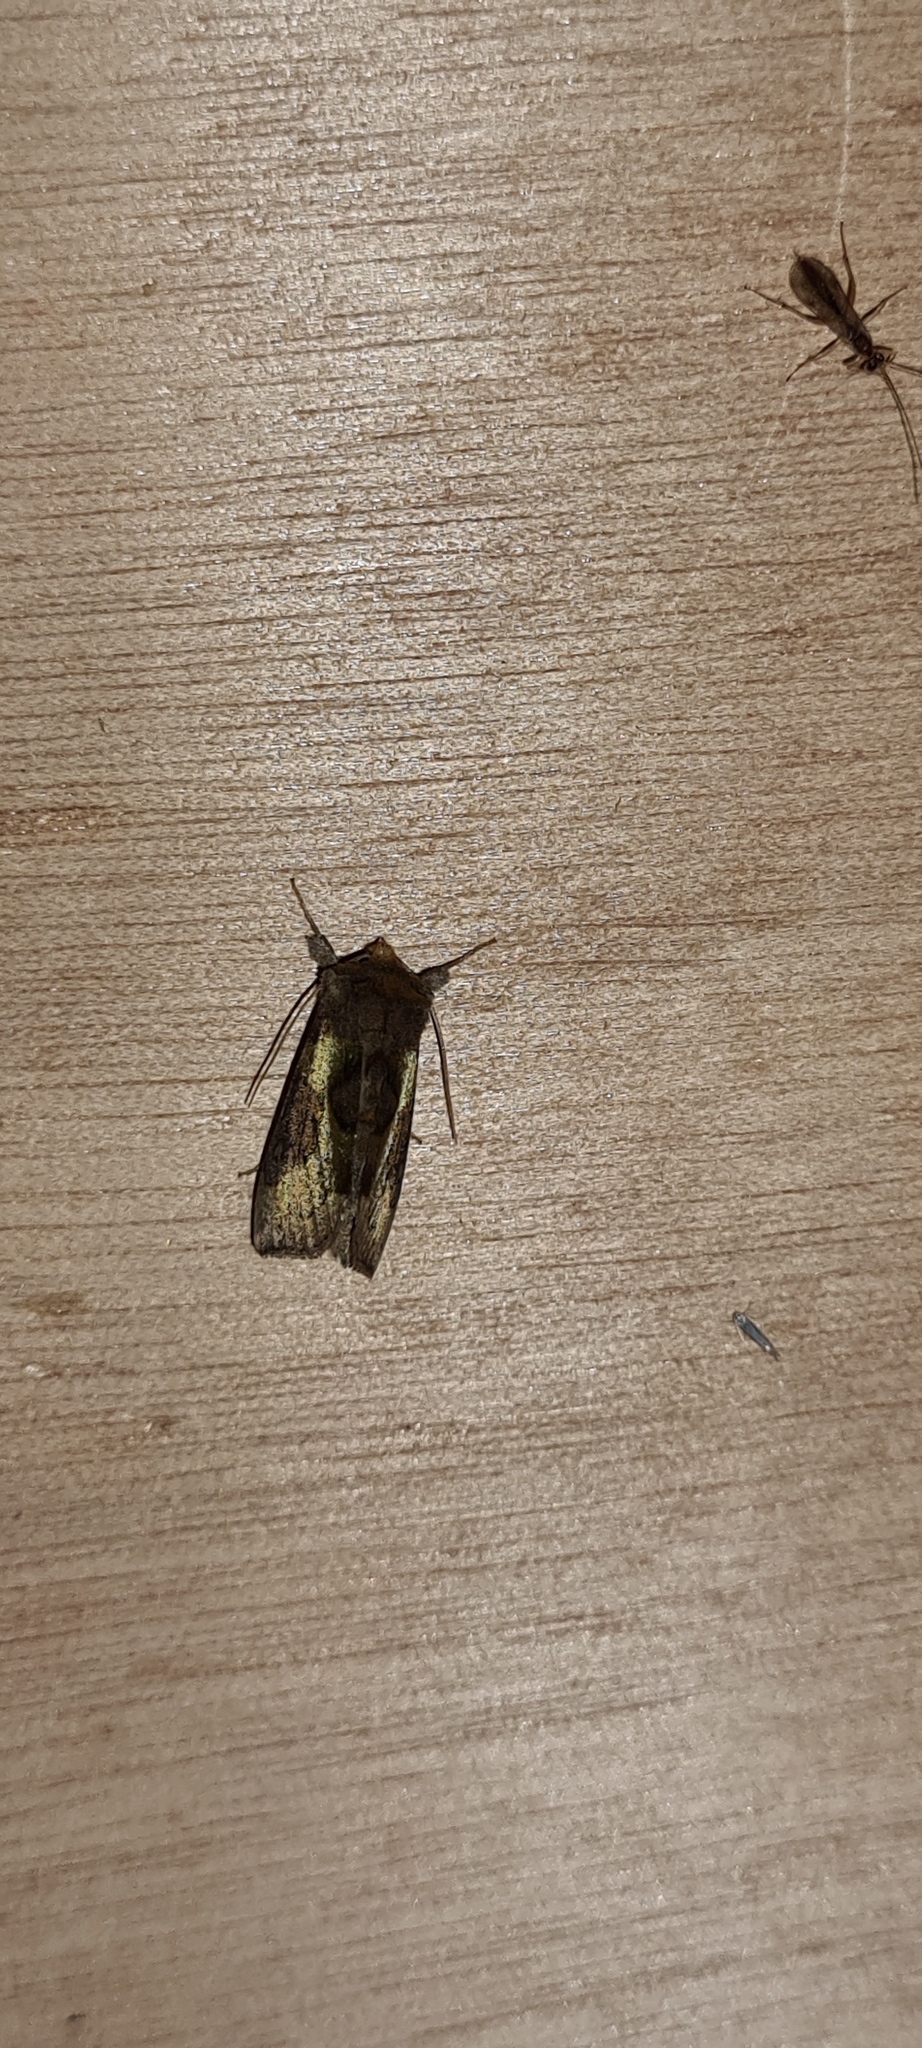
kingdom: Animalia
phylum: Arthropoda
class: Insecta
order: Lepidoptera
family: Noctuidae
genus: Diachrysia
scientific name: Diachrysia chrysitis
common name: Burnished brass
